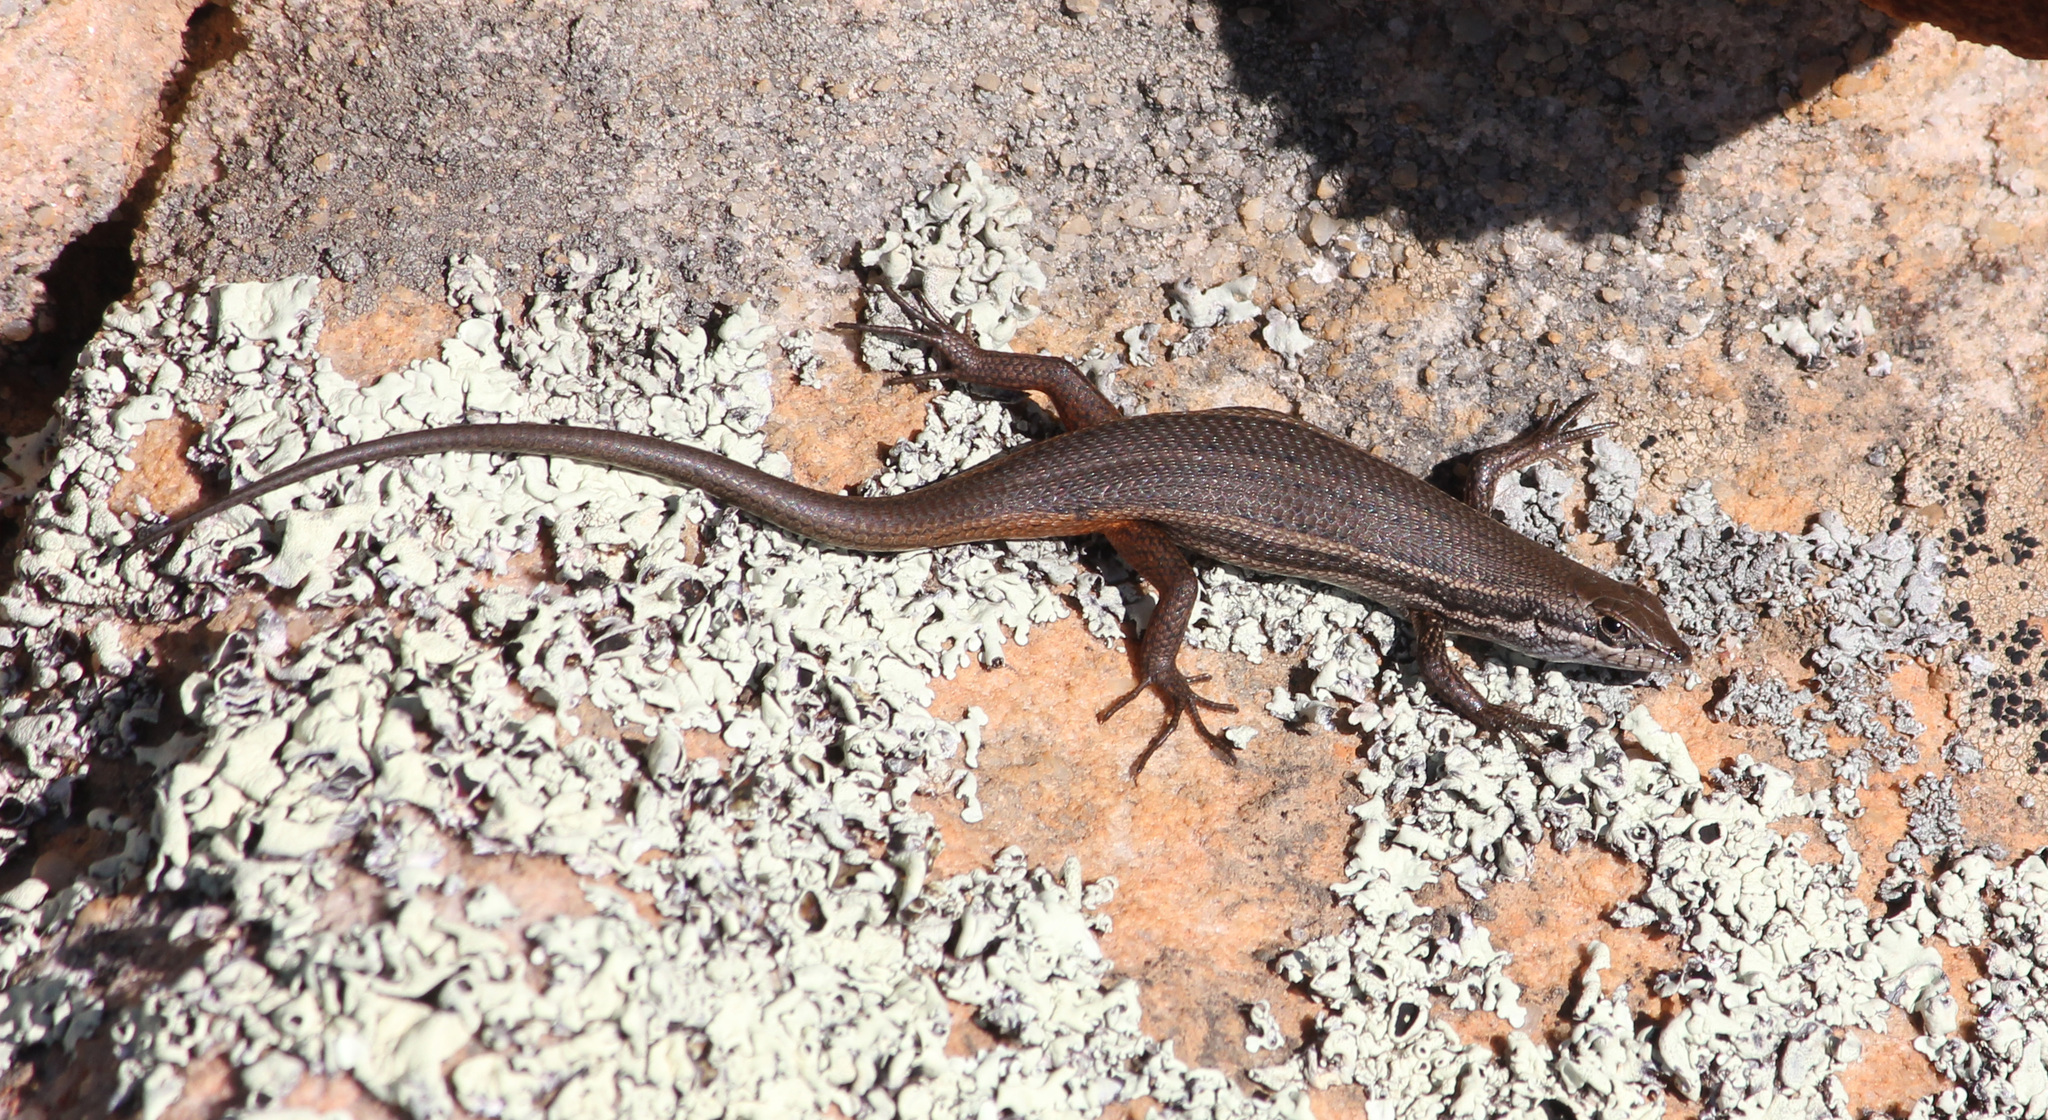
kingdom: Animalia
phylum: Chordata
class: Squamata
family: Scincidae
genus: Trachylepis
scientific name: Trachylepis variegata
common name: Variegated skink
